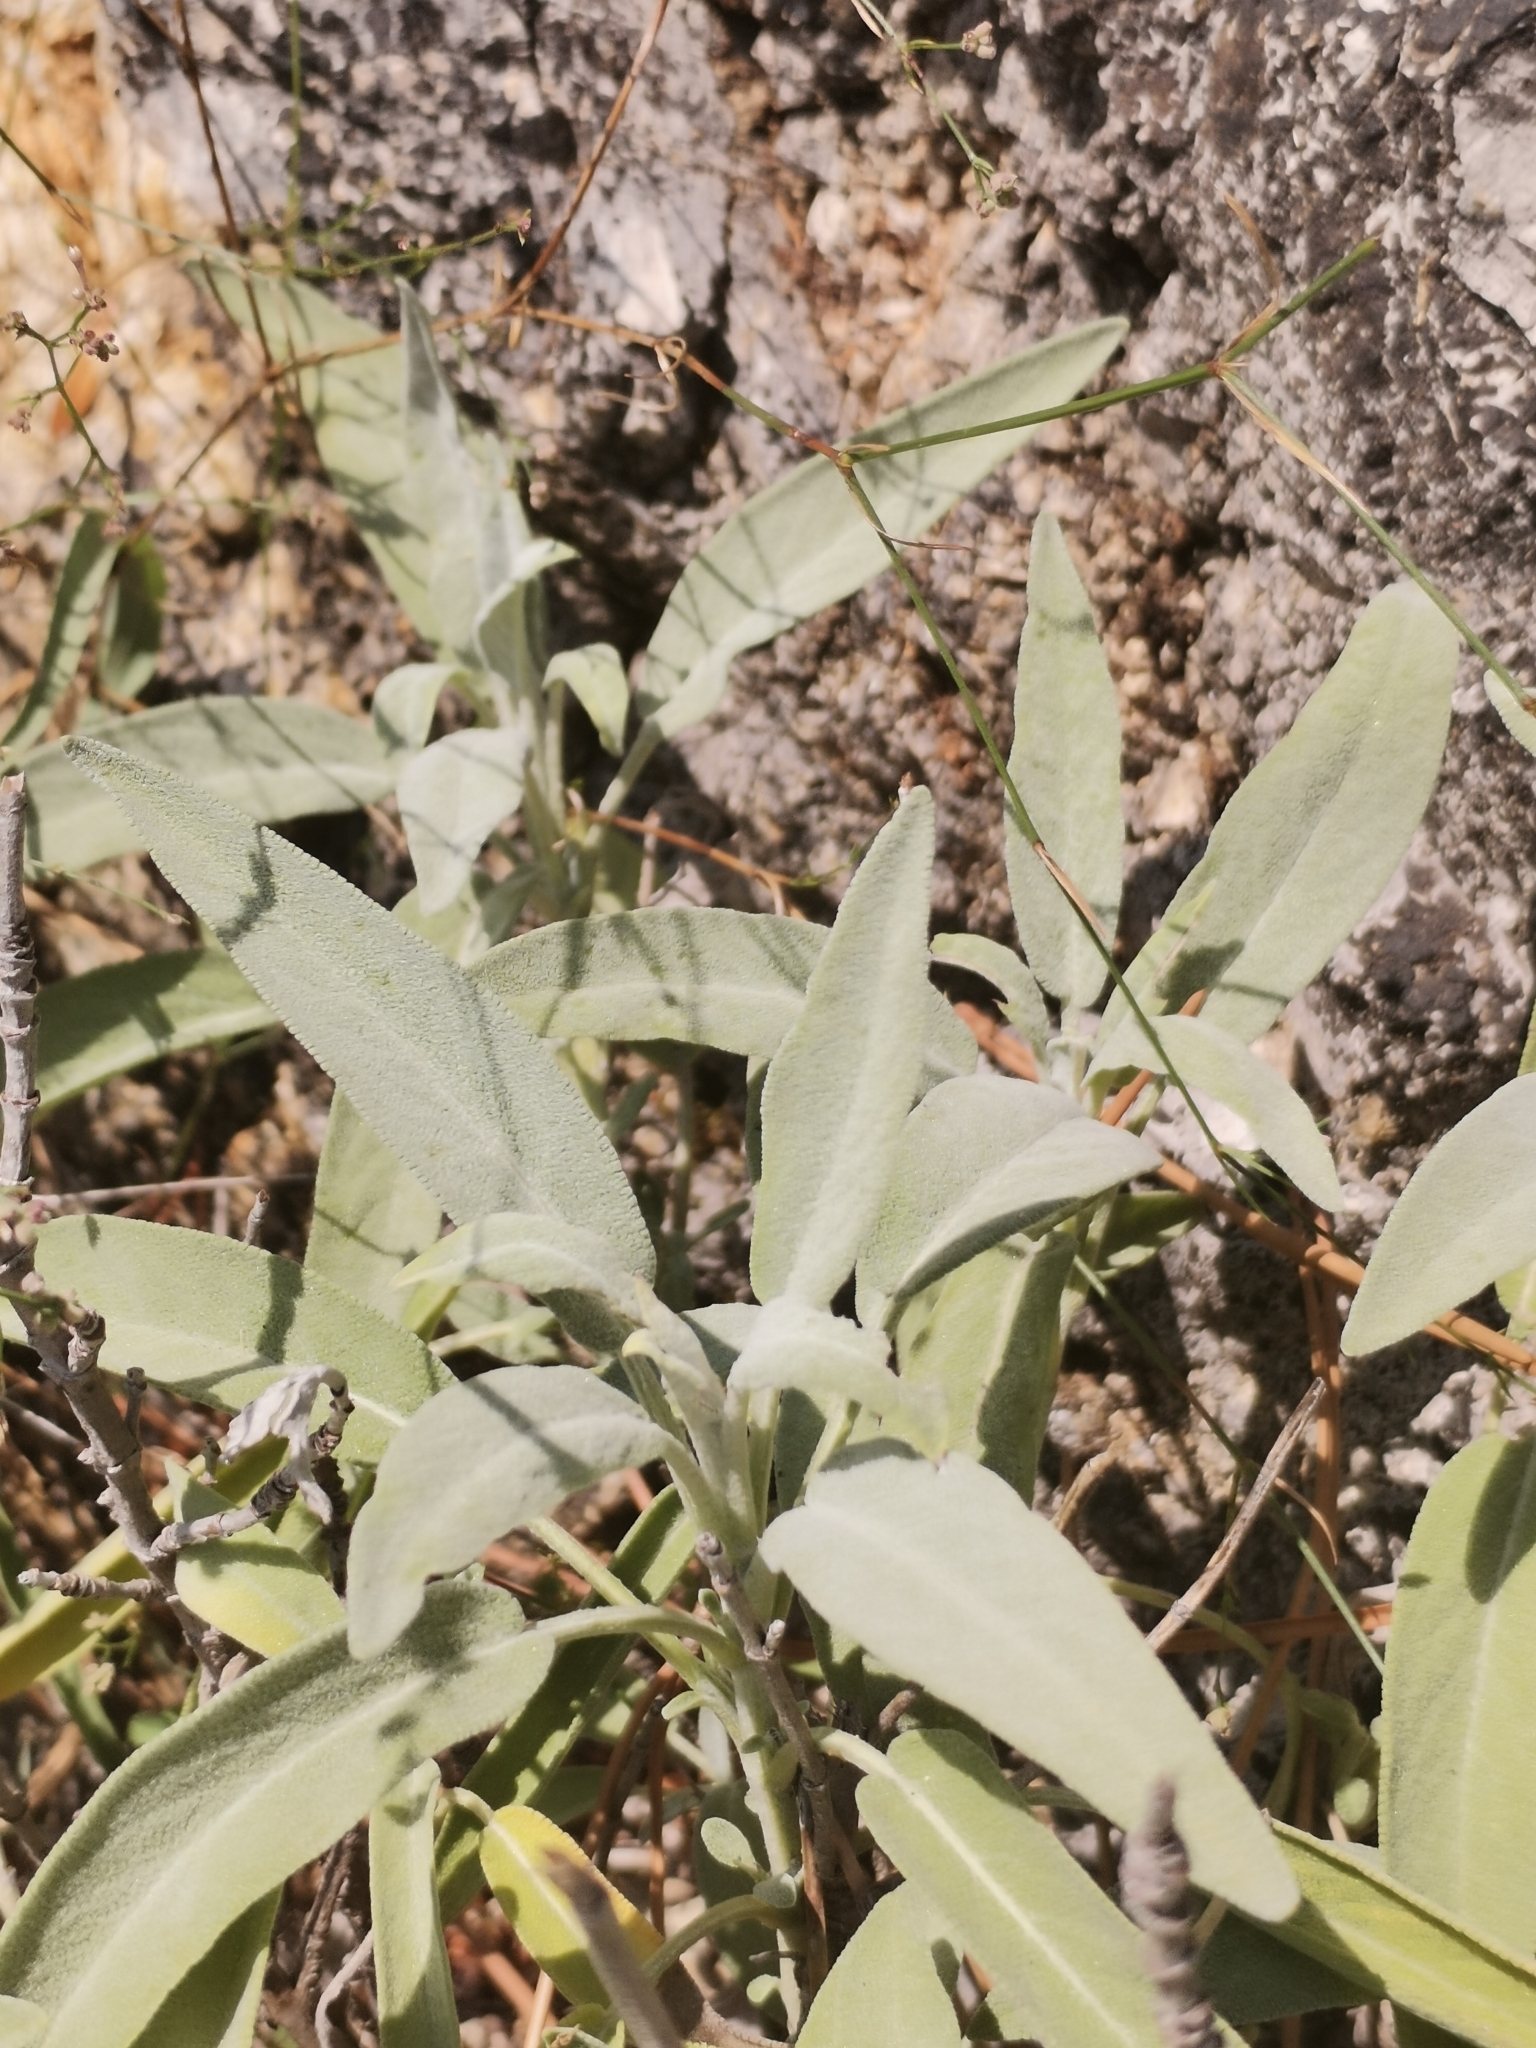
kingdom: Plantae
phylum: Tracheophyta
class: Magnoliopsida
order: Lamiales
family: Lamiaceae
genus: Salvia
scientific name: Salvia officinalis
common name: Sage
